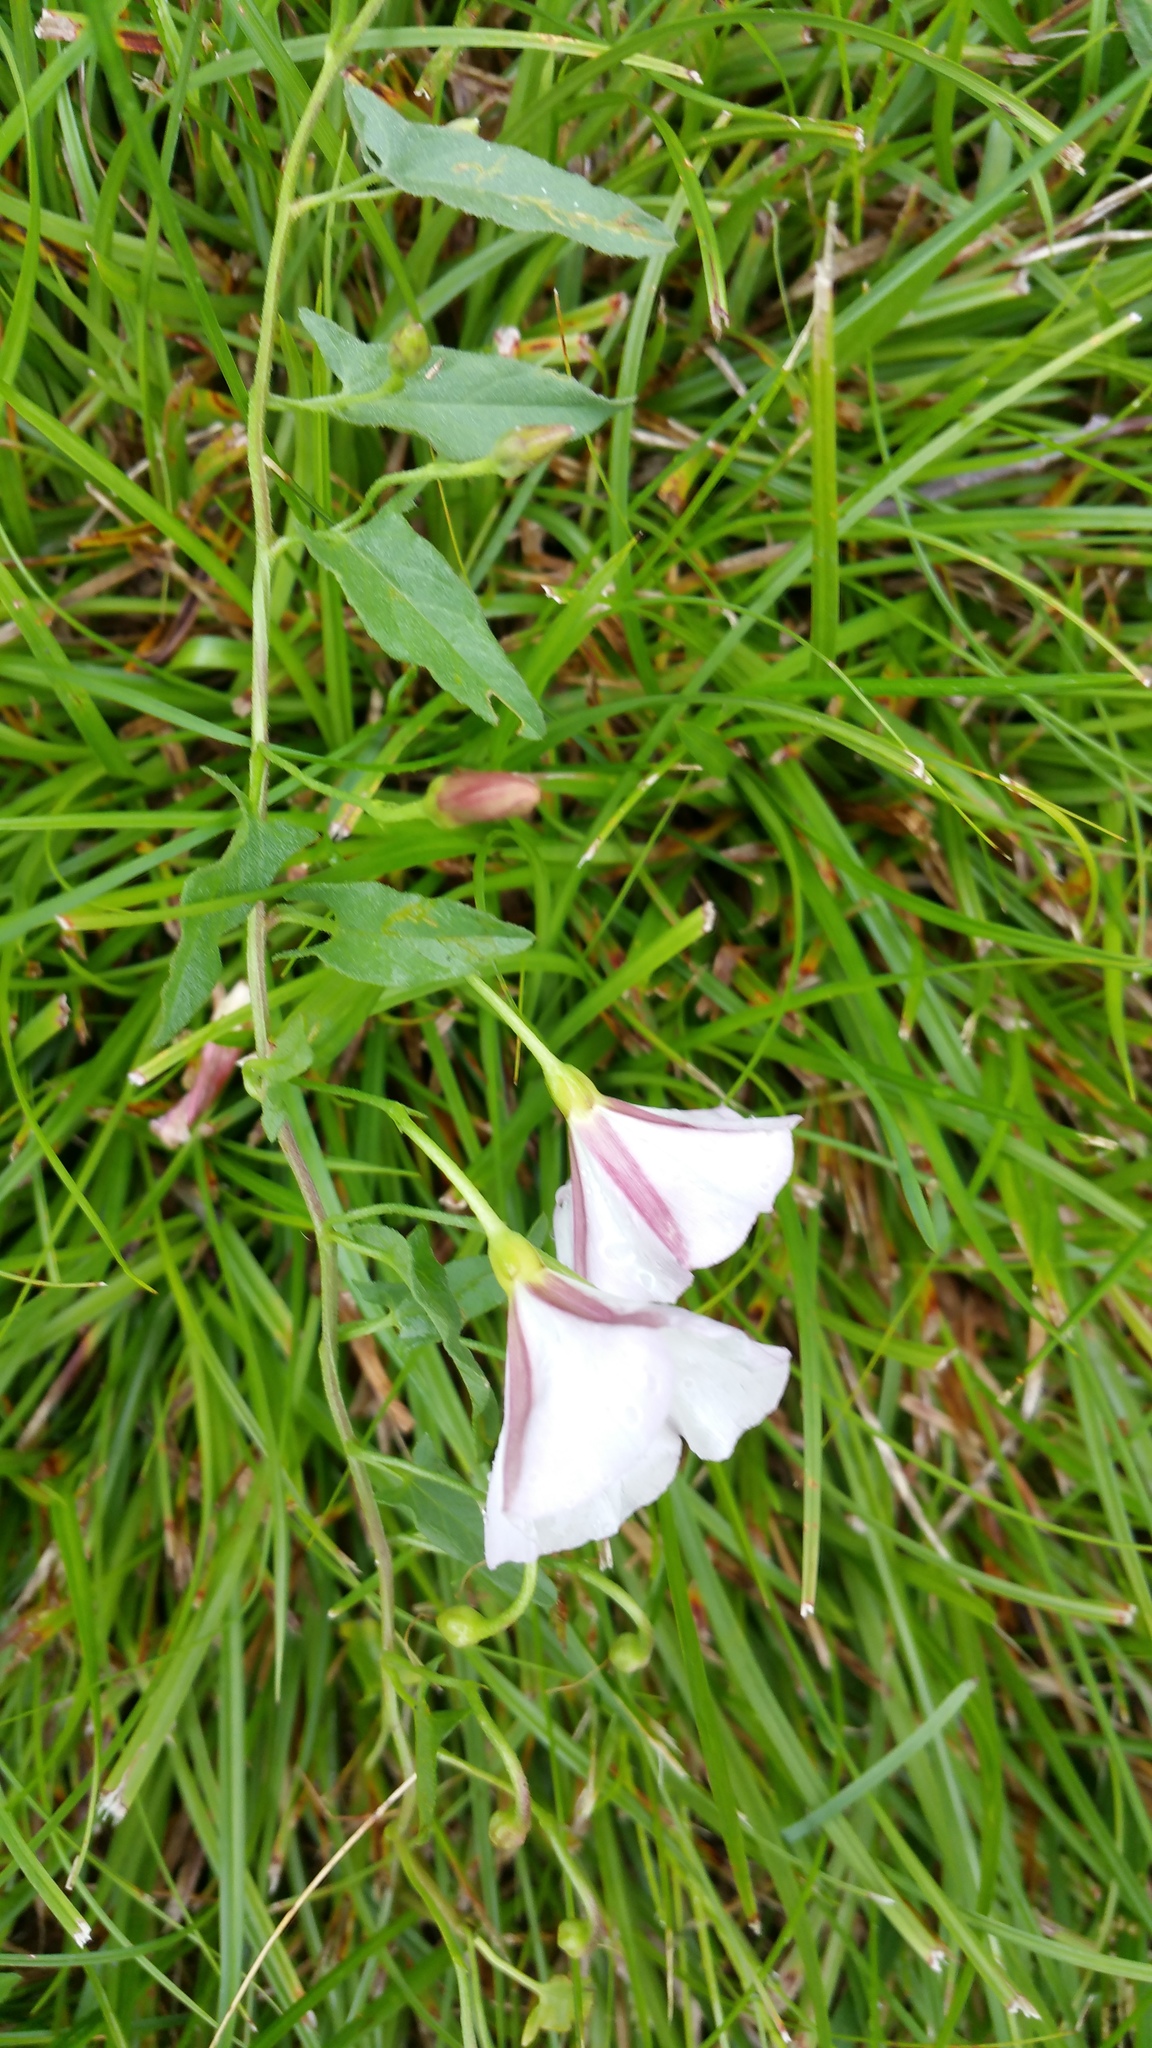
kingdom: Plantae
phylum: Tracheophyta
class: Magnoliopsida
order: Solanales
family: Convolvulaceae
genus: Convolvulus
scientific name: Convolvulus arvensis
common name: Field bindweed
